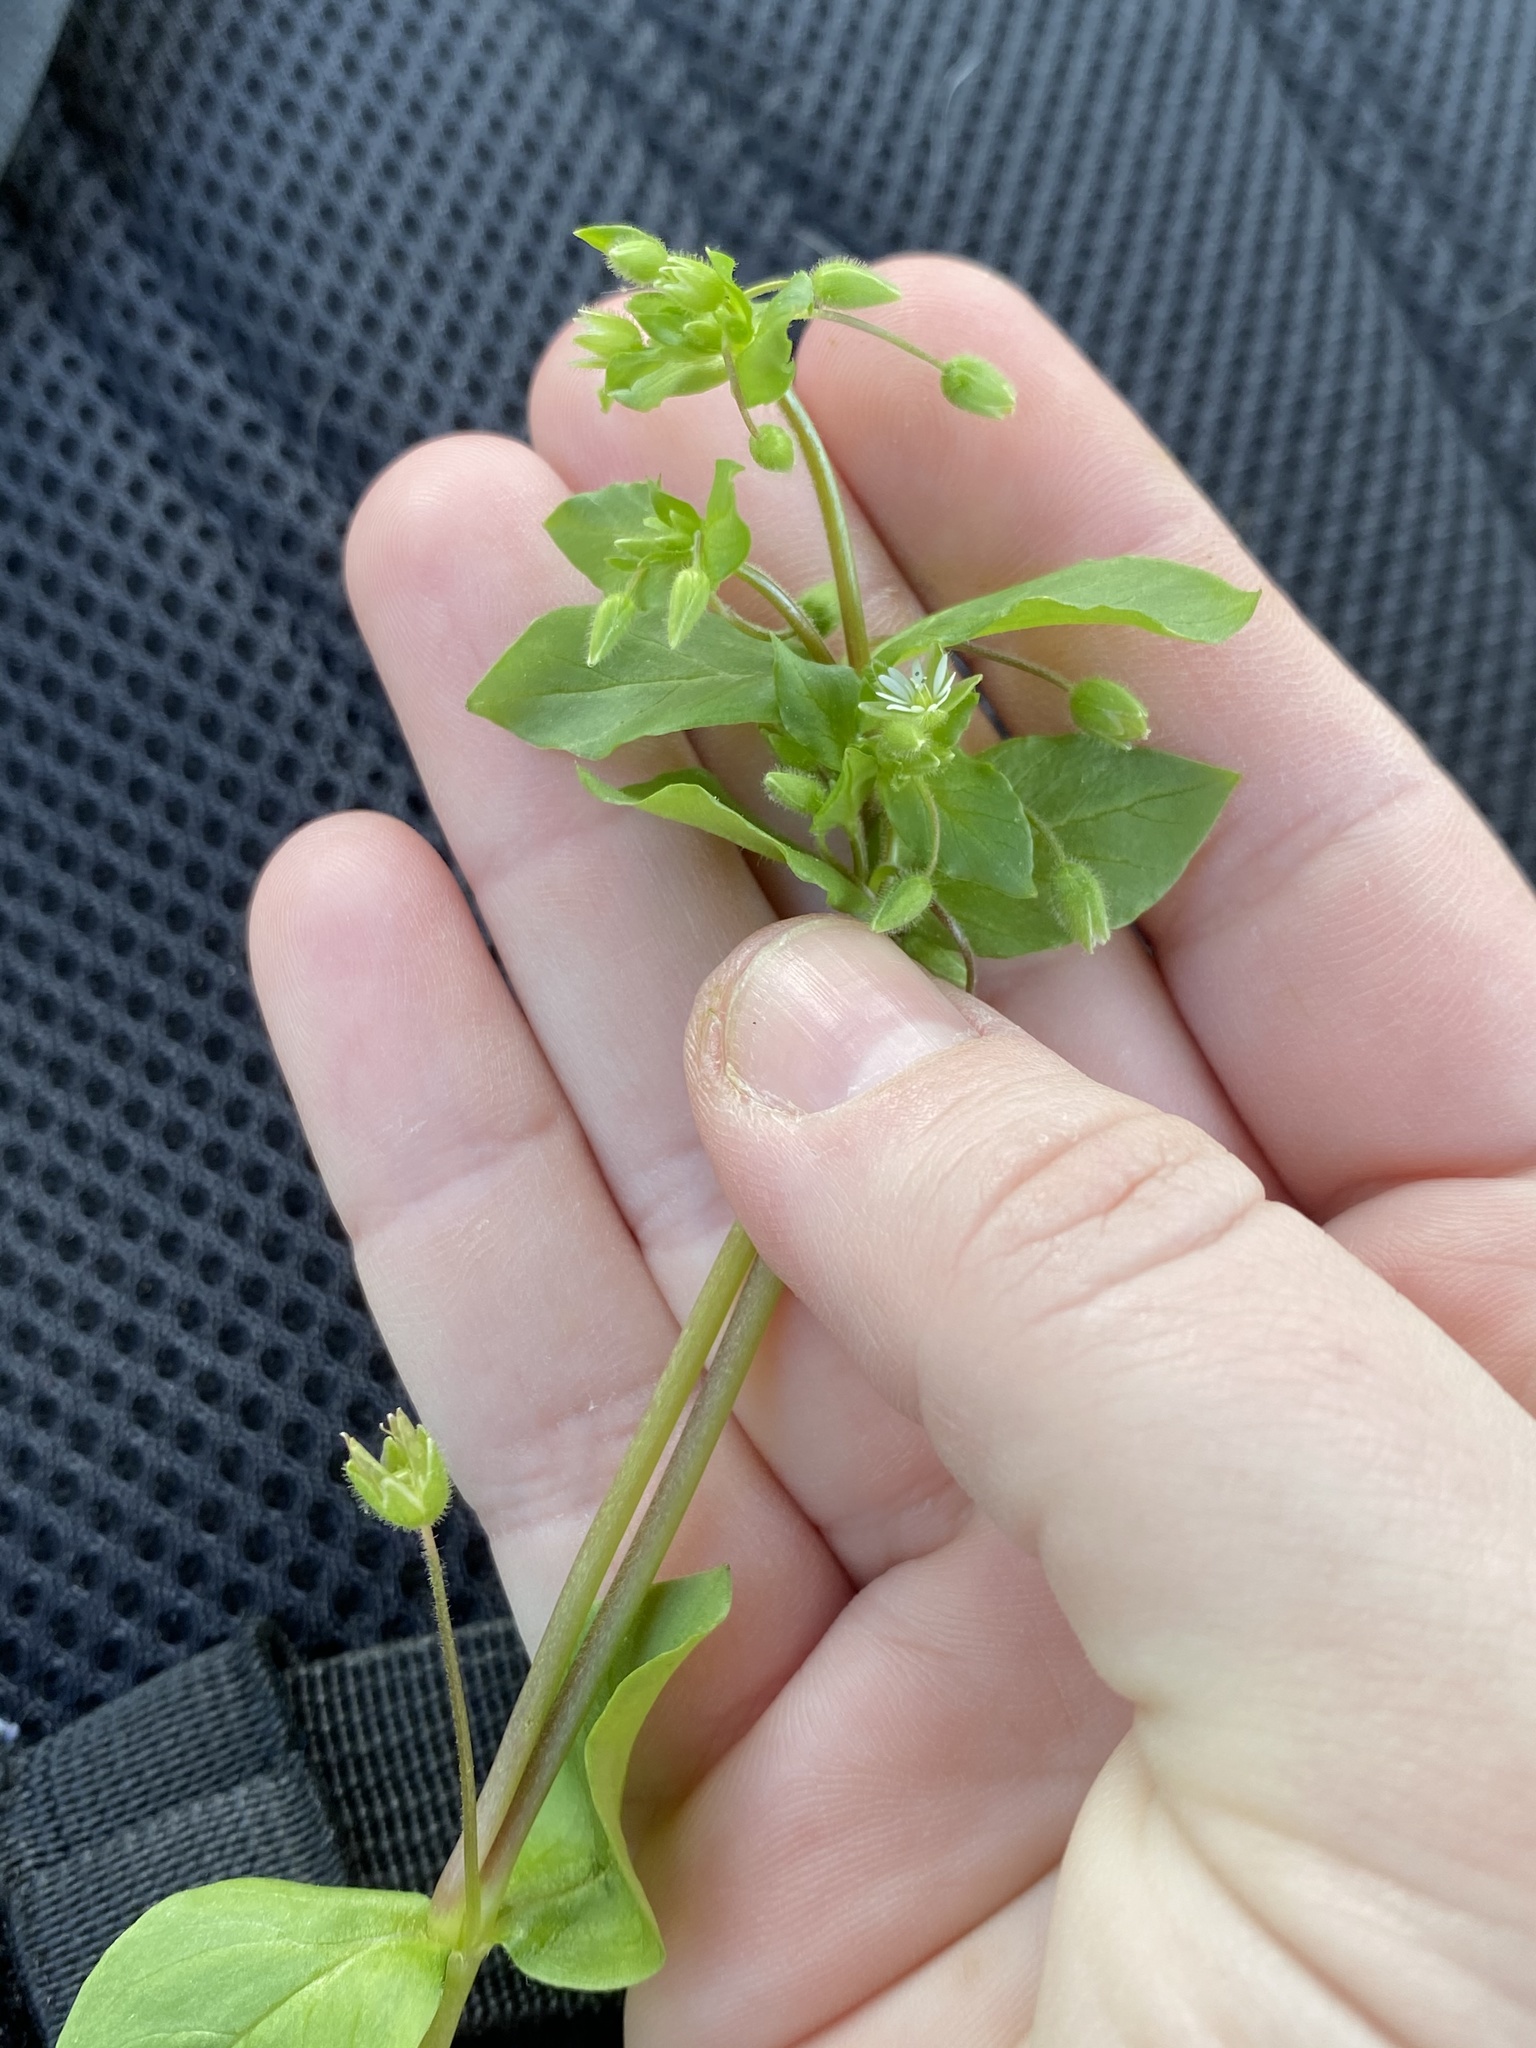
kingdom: Plantae
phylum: Tracheophyta
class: Magnoliopsida
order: Caryophyllales
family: Caryophyllaceae
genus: Stellaria
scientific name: Stellaria media
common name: Common chickweed
